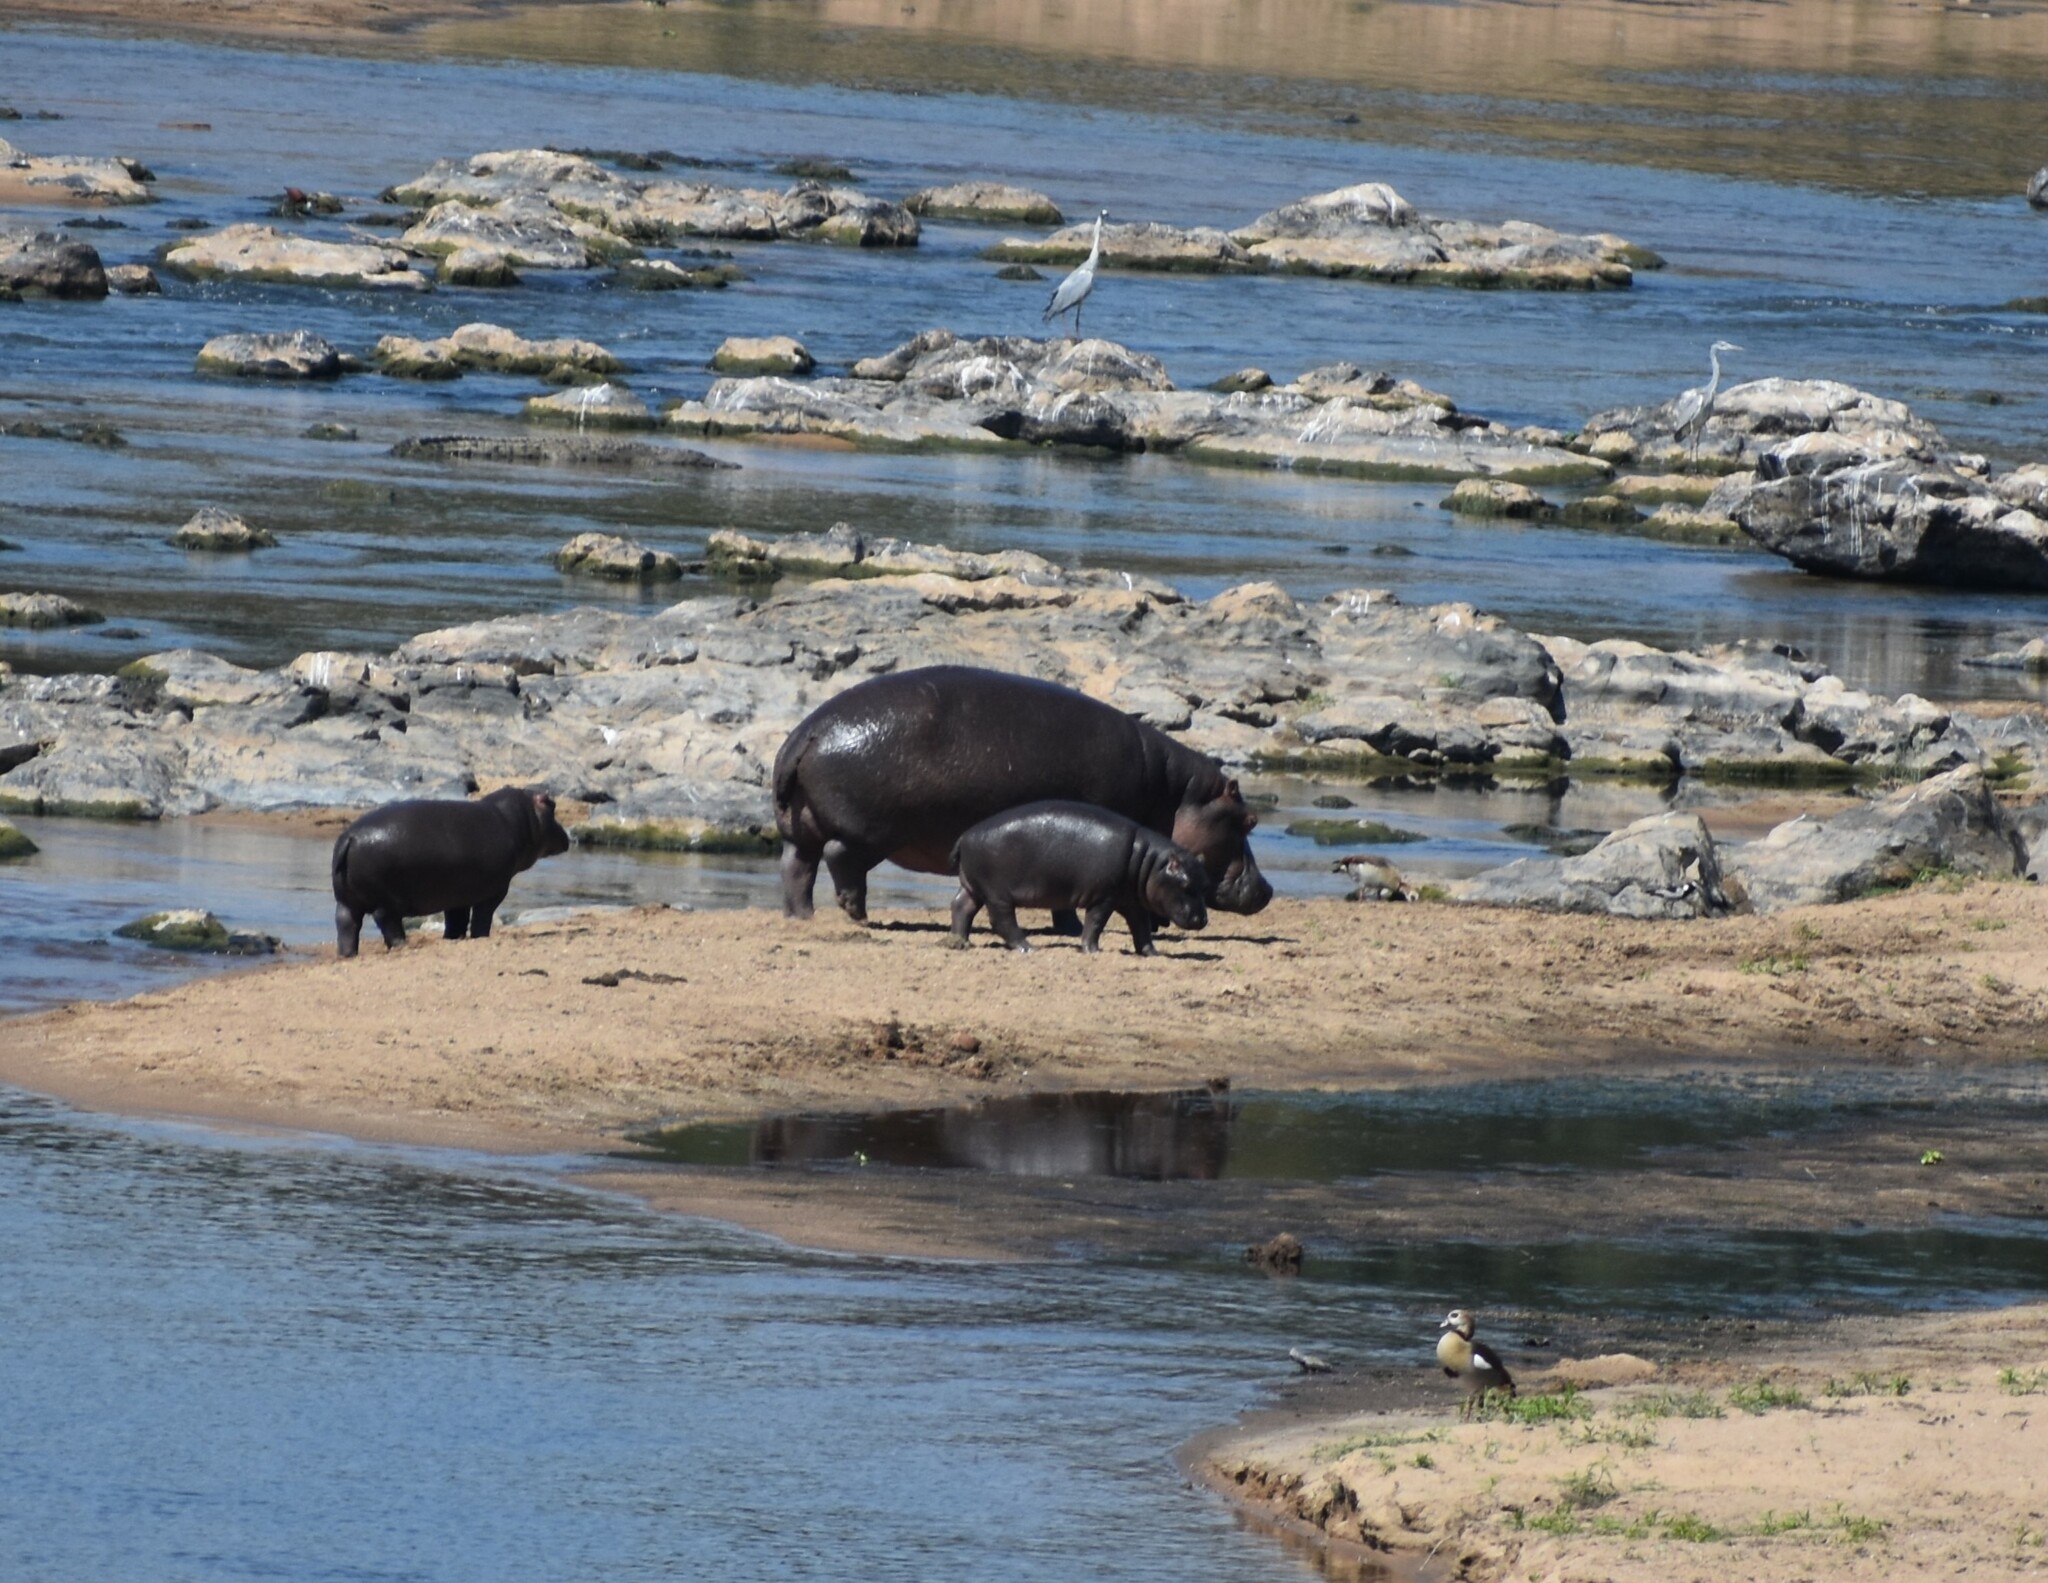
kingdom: Animalia
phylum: Chordata
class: Mammalia
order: Artiodactyla
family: Hippopotamidae
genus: Hippopotamus
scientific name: Hippopotamus amphibius
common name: Common hippopotamus
